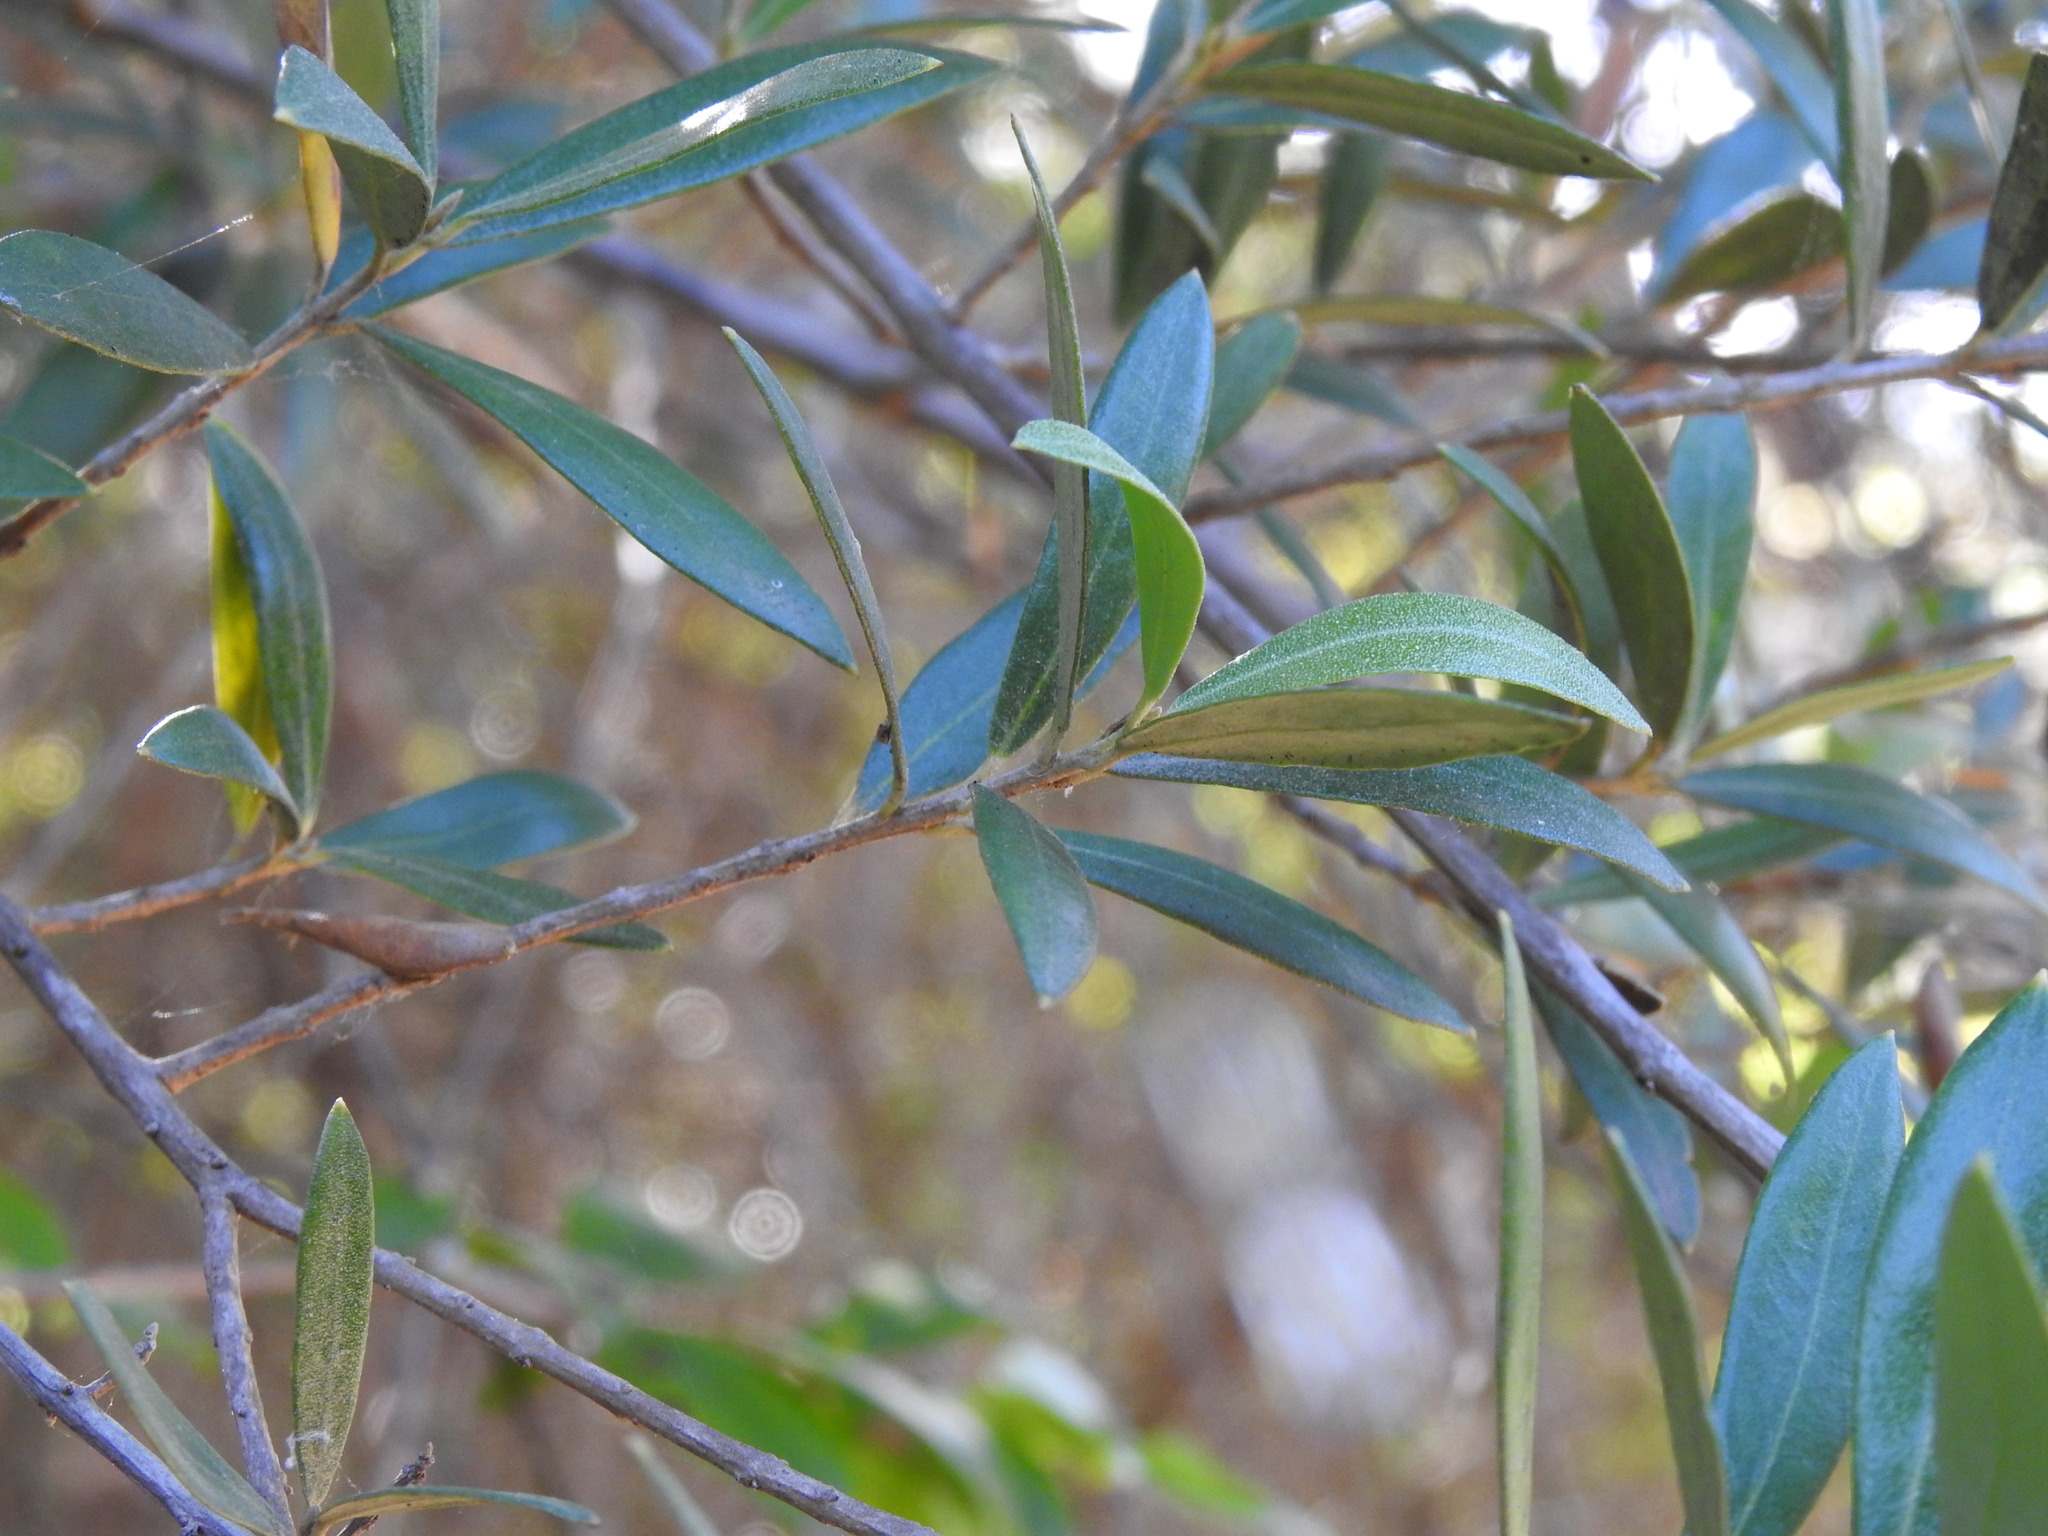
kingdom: Plantae
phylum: Tracheophyta
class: Magnoliopsida
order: Lamiales
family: Oleaceae
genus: Olea
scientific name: Olea europaea
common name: Olive
